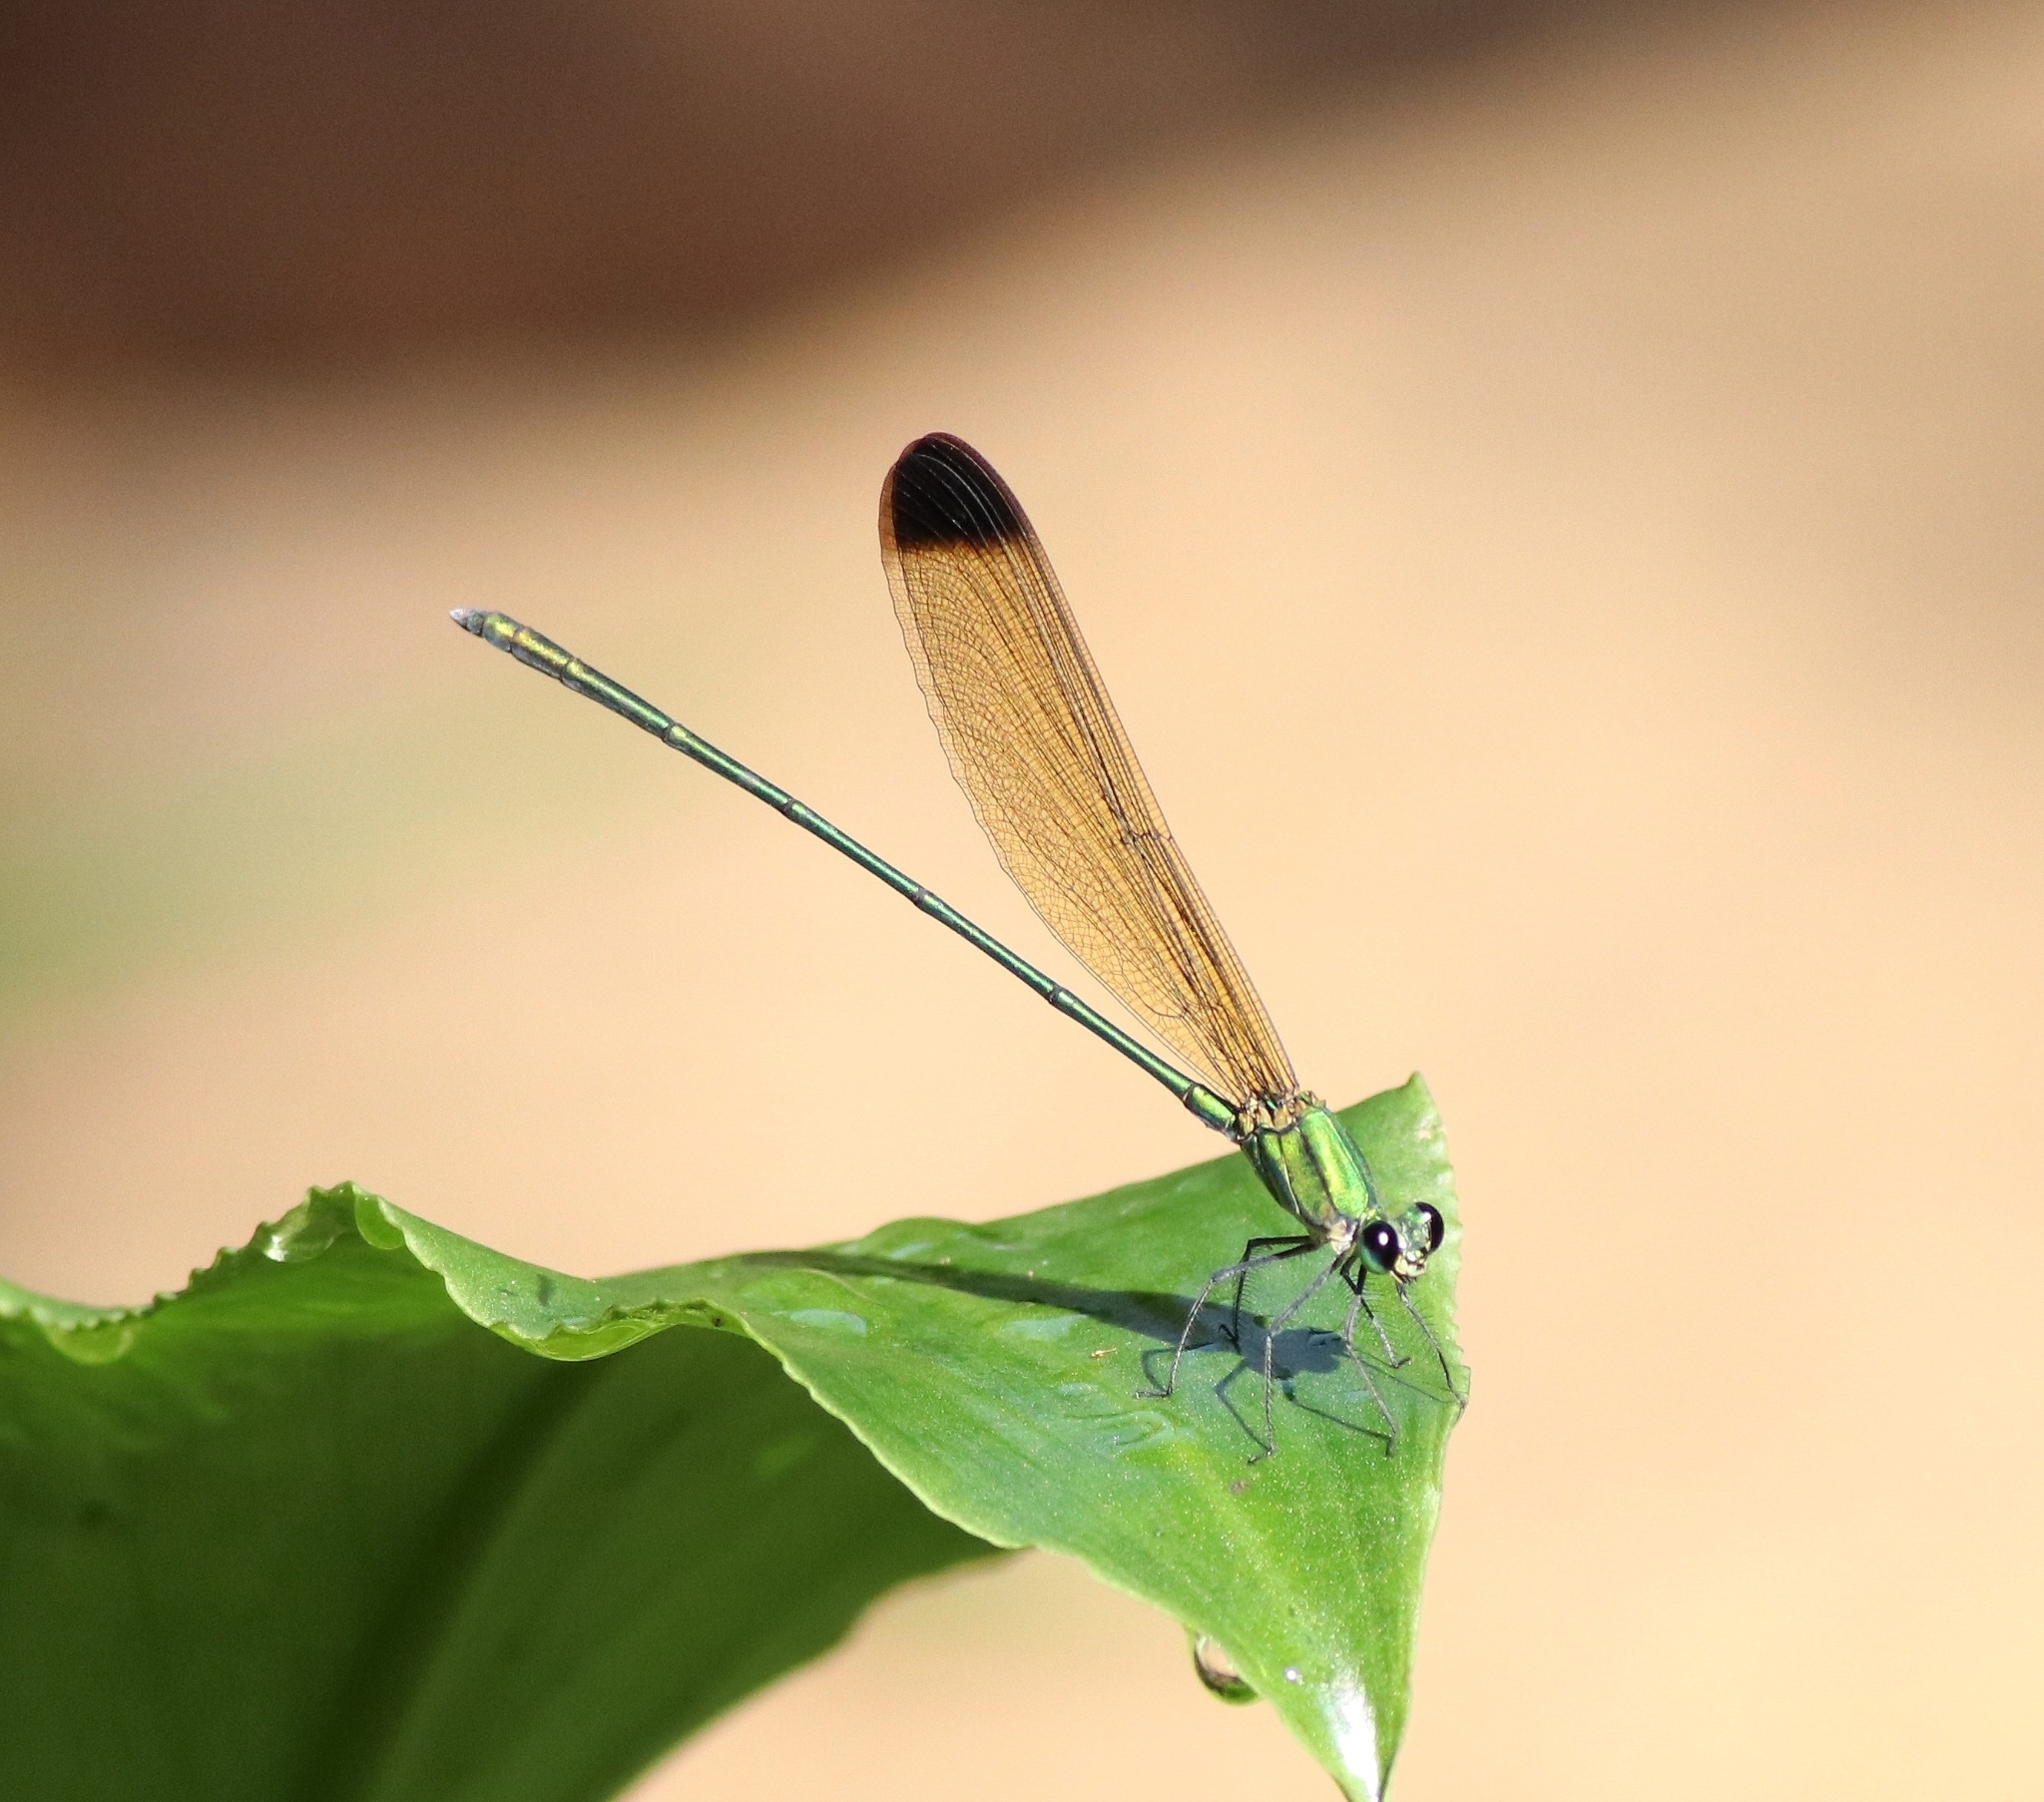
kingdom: Animalia
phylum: Arthropoda
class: Insecta
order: Odonata
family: Calopterygidae
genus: Vestalis
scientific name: Vestalis apicalis
